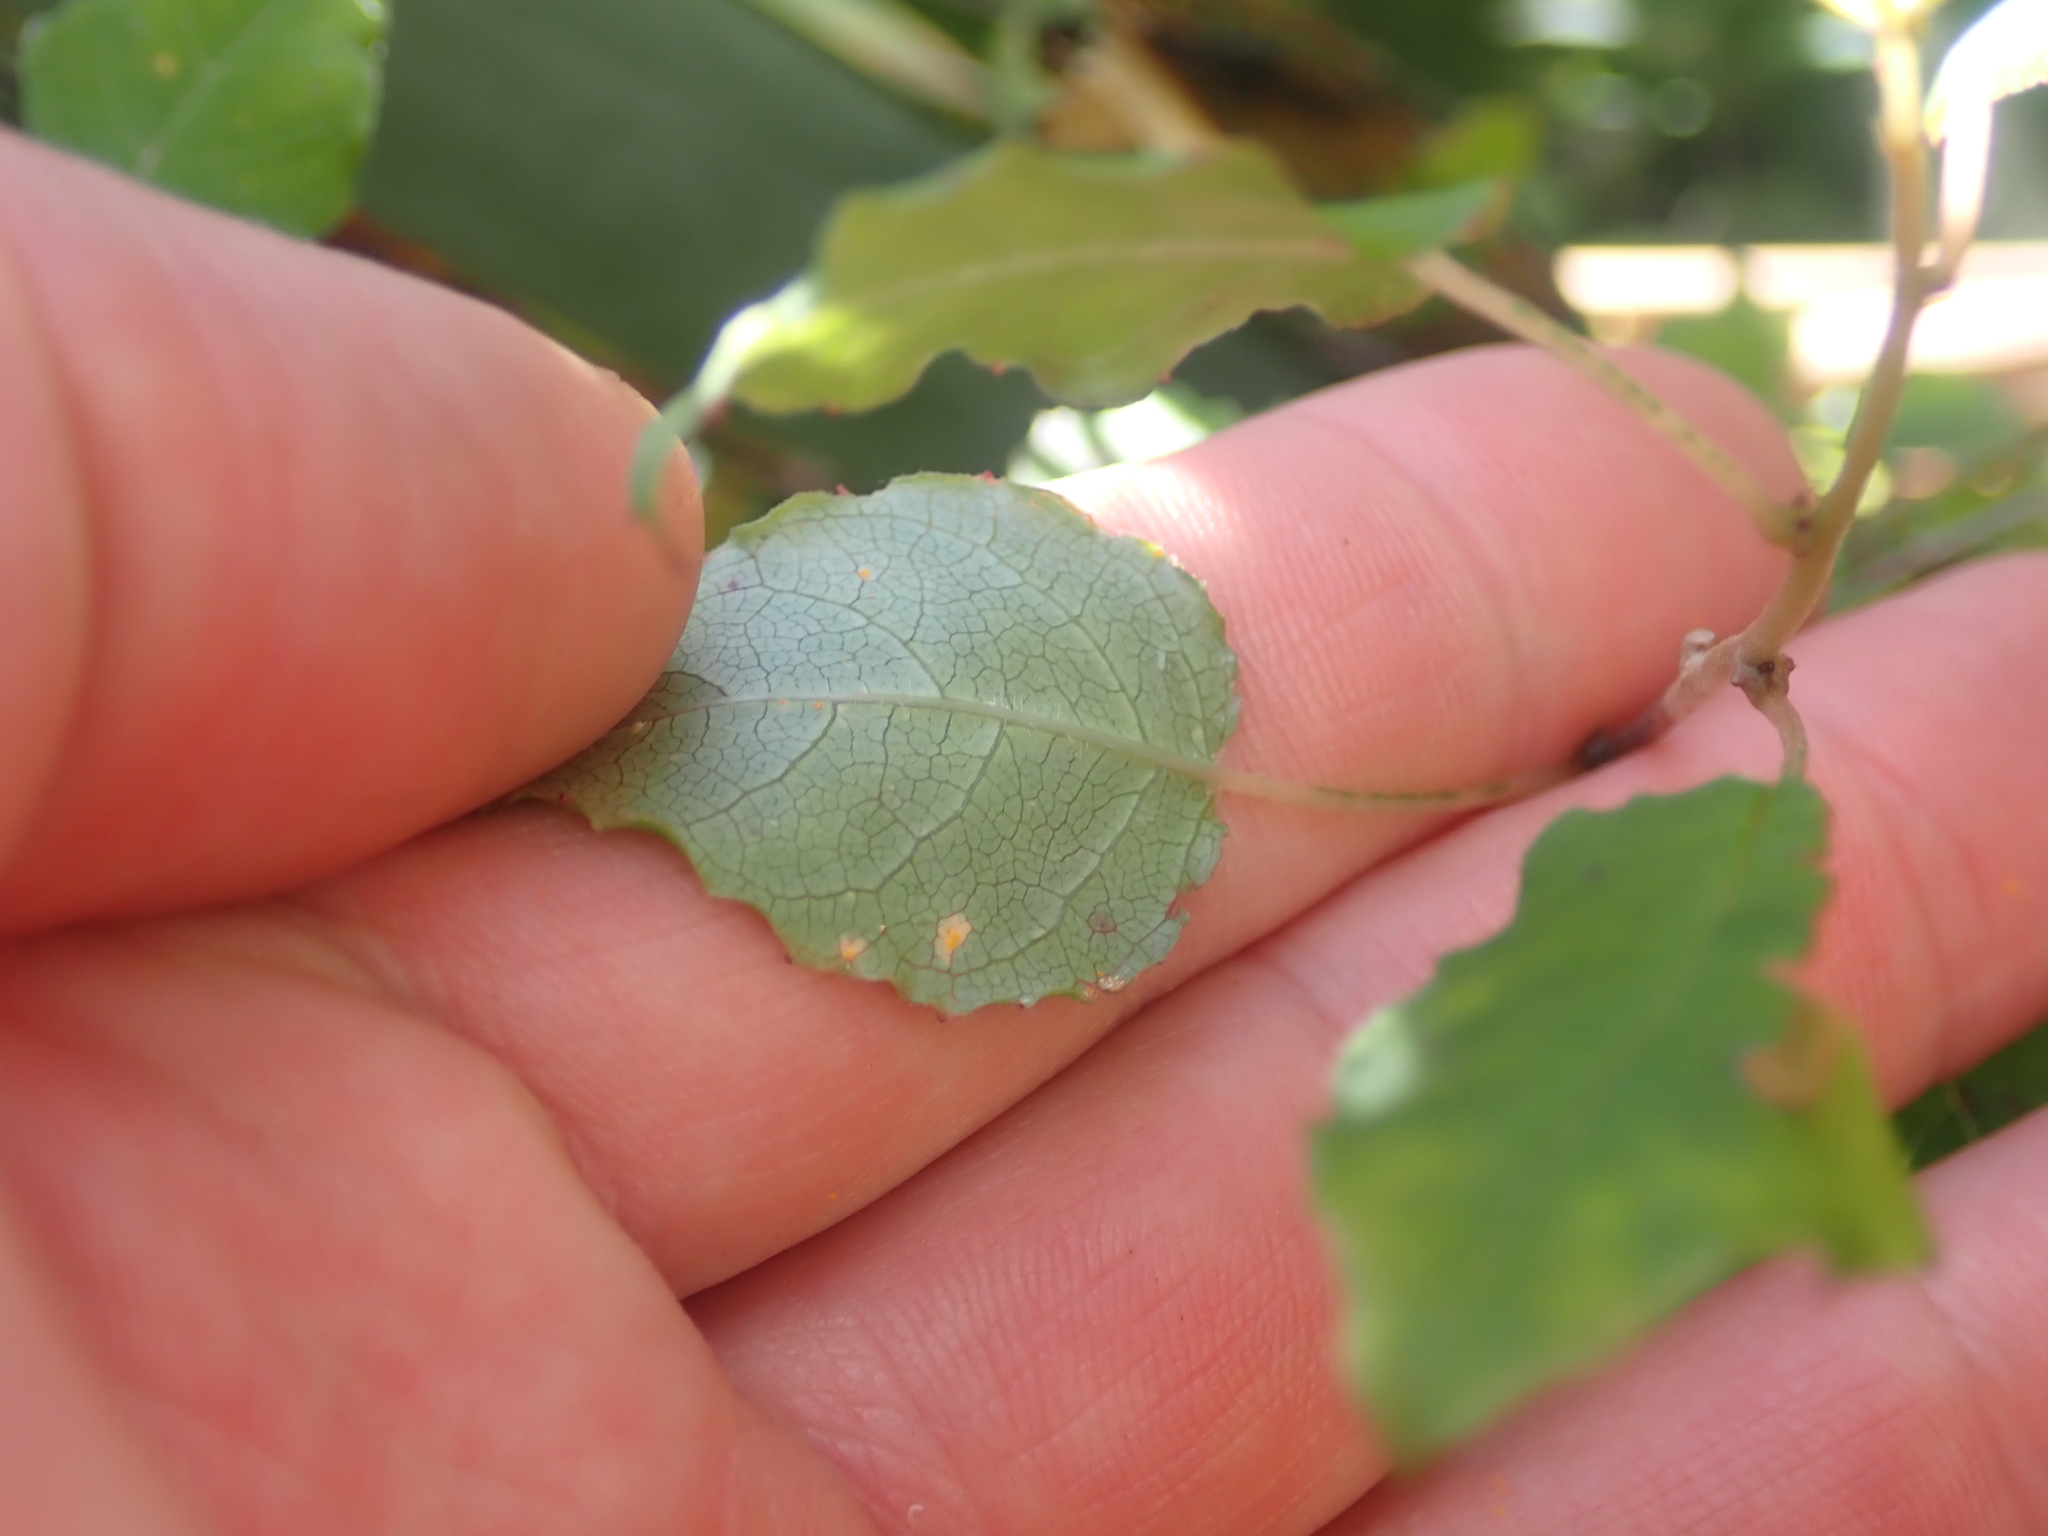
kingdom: Plantae
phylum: Tracheophyta
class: Magnoliopsida
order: Myrtales
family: Onagraceae
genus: Fuchsia
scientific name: Fuchsia perscandens
